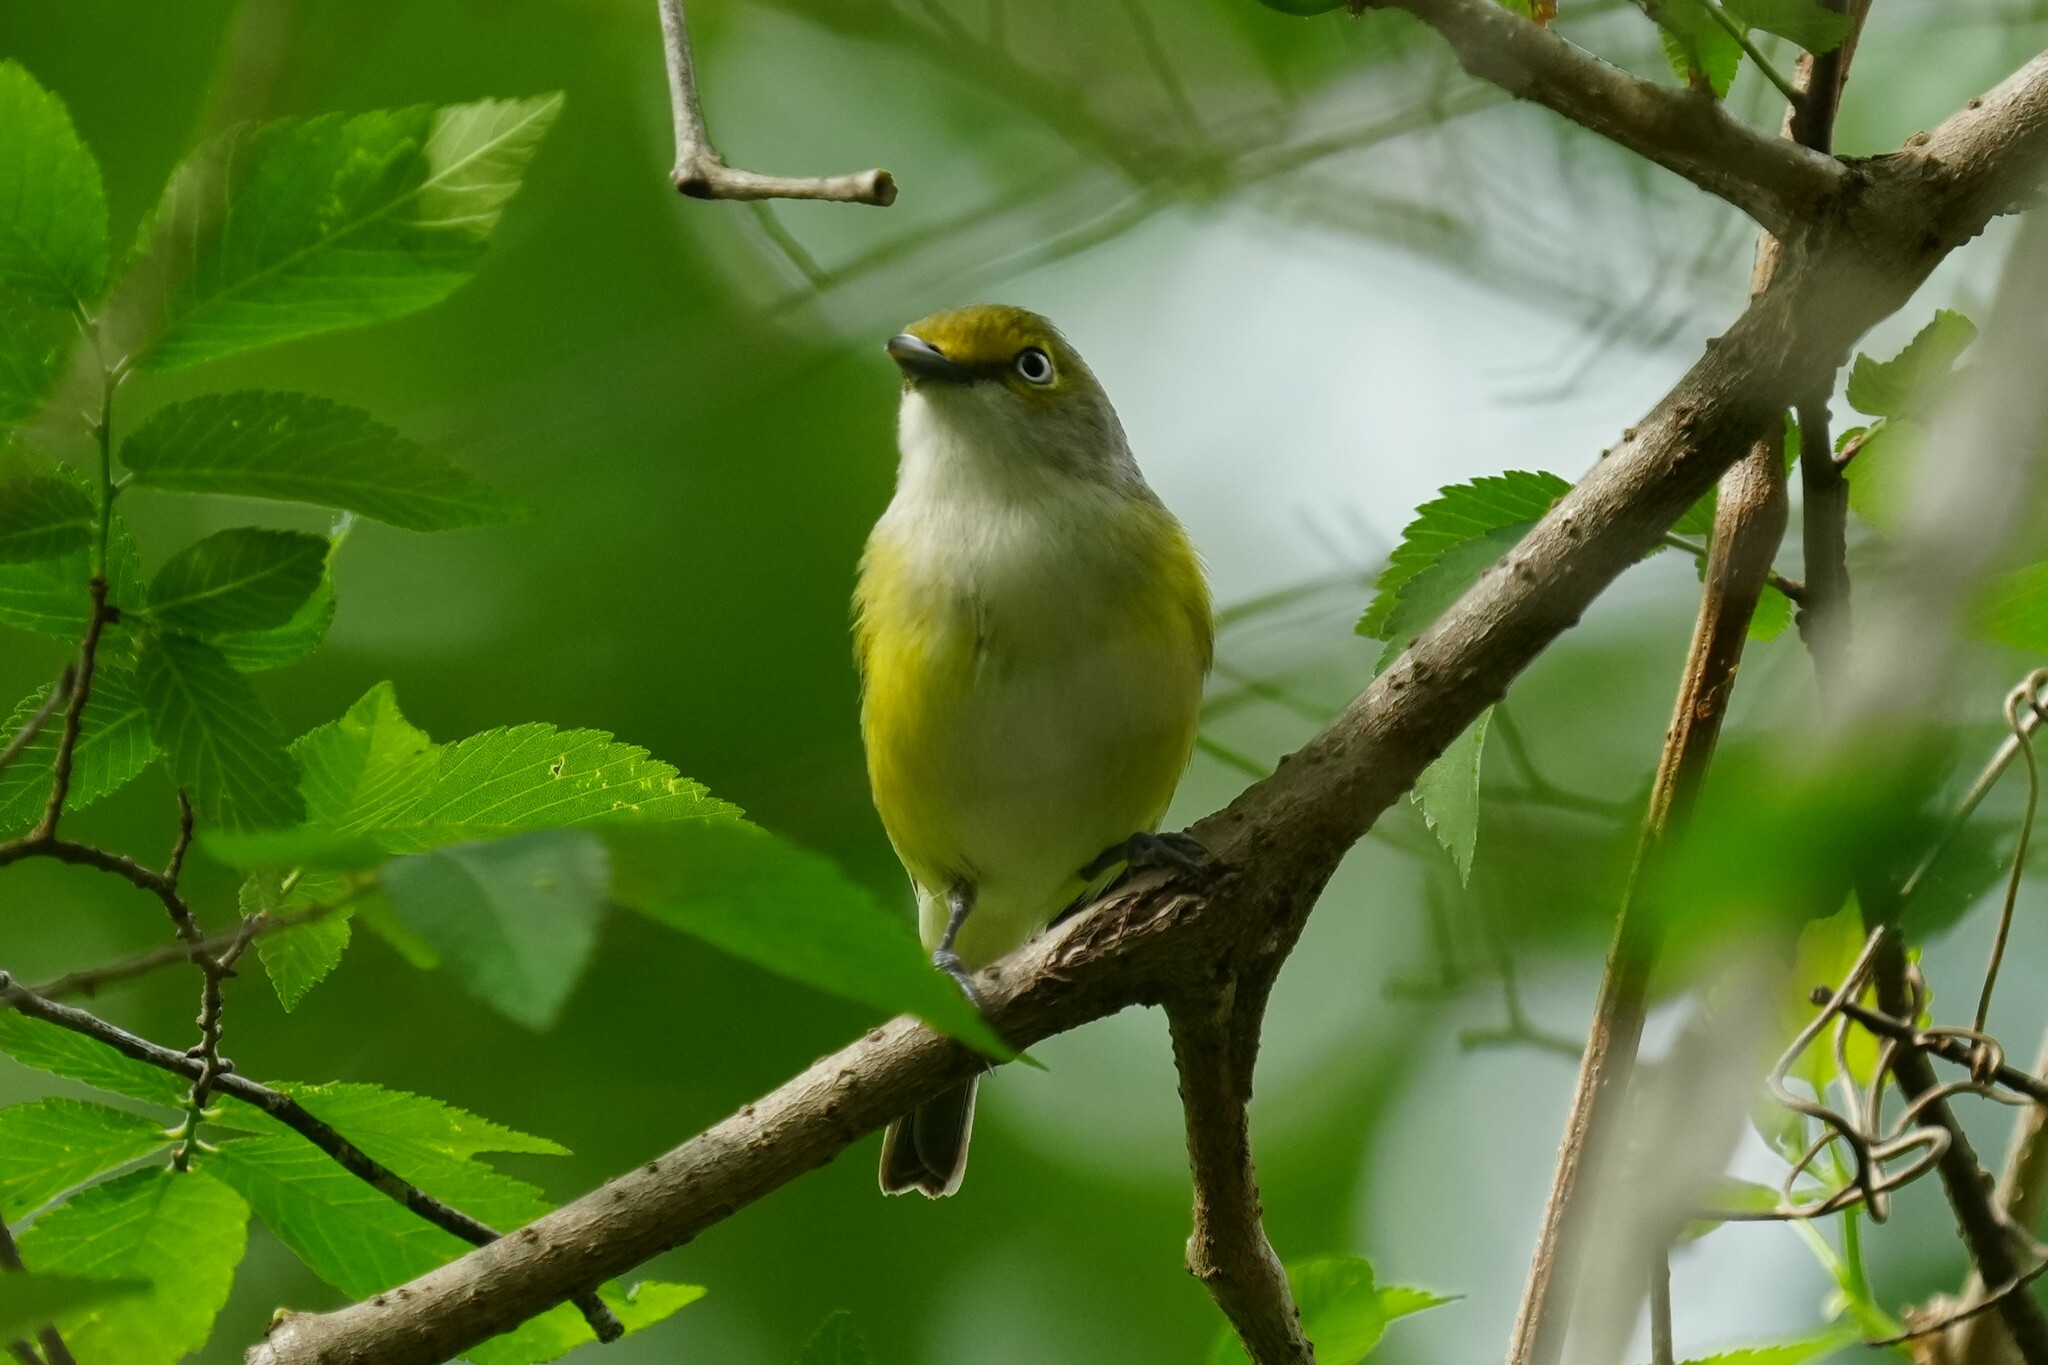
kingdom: Animalia
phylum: Chordata
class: Aves
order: Passeriformes
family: Vireonidae
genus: Vireo
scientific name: Vireo griseus
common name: White-eyed vireo
